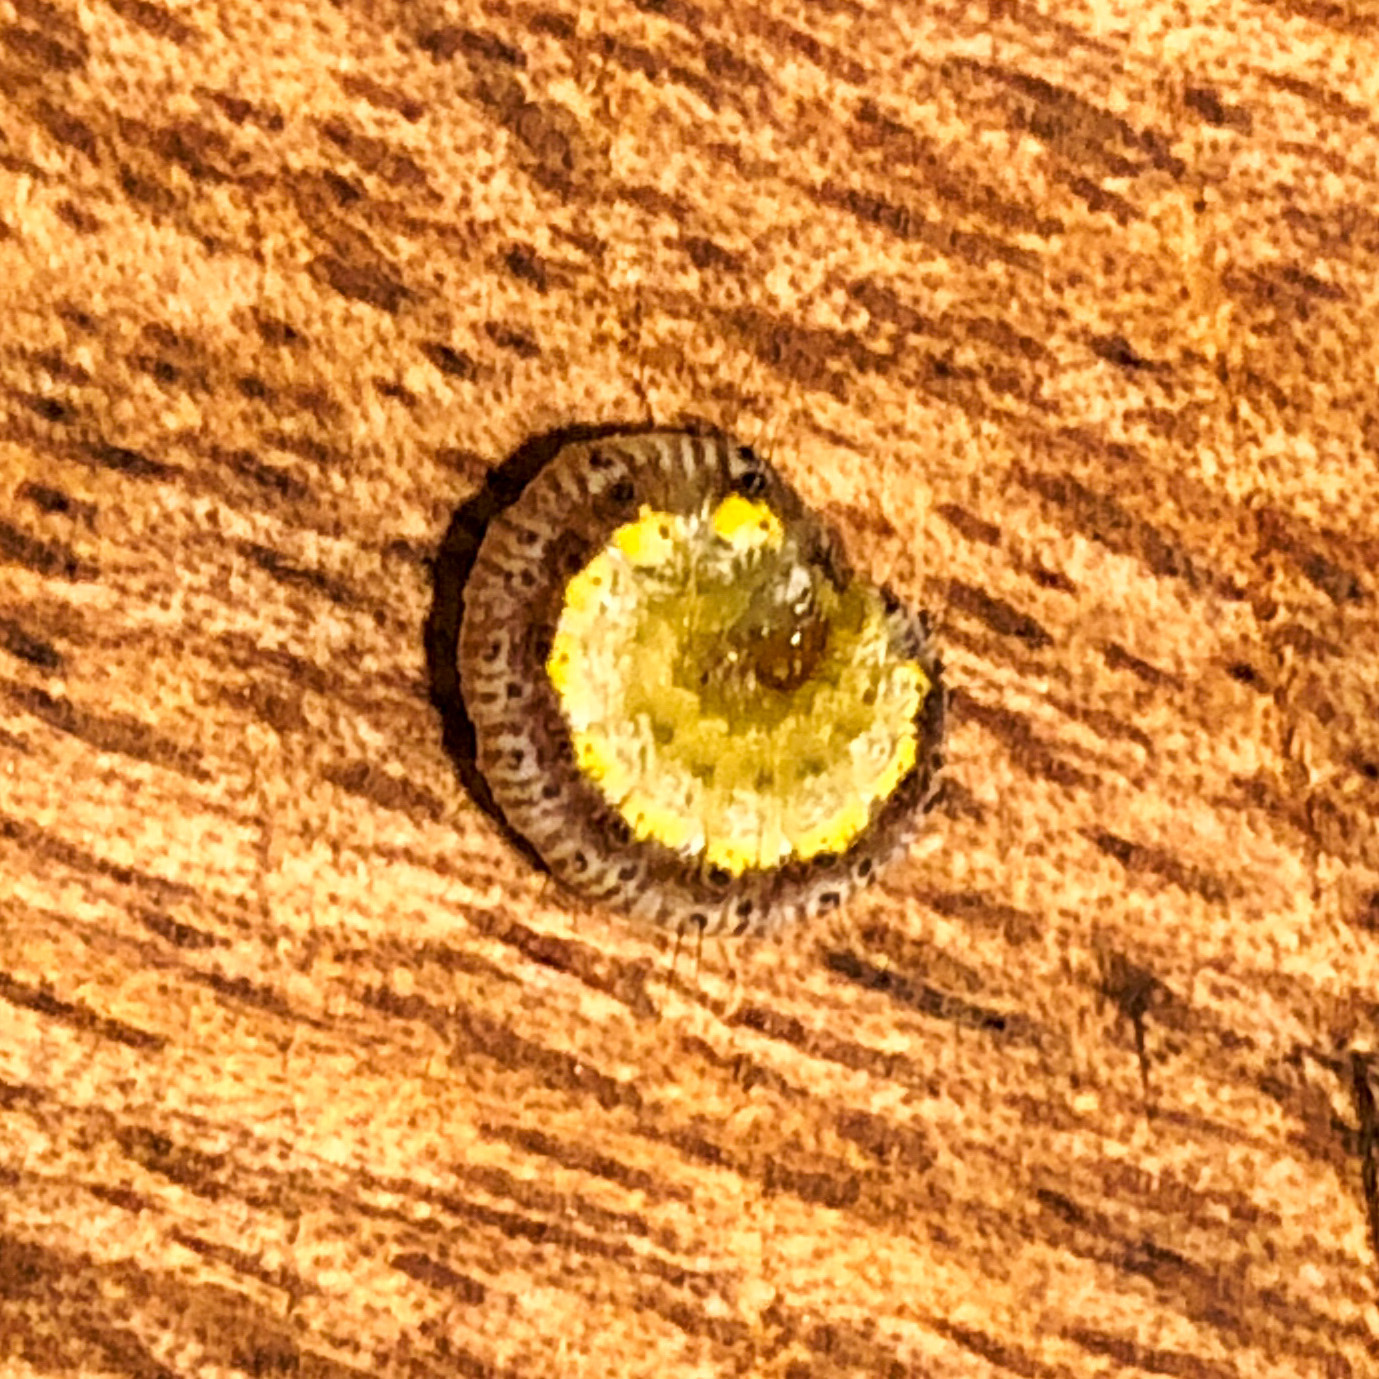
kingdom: Animalia
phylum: Arthropoda
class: Insecta
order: Lepidoptera
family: Crambidae
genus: Evergestis
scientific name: Evergestis rimosalis
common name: Cross-striped cabbageworm moth
